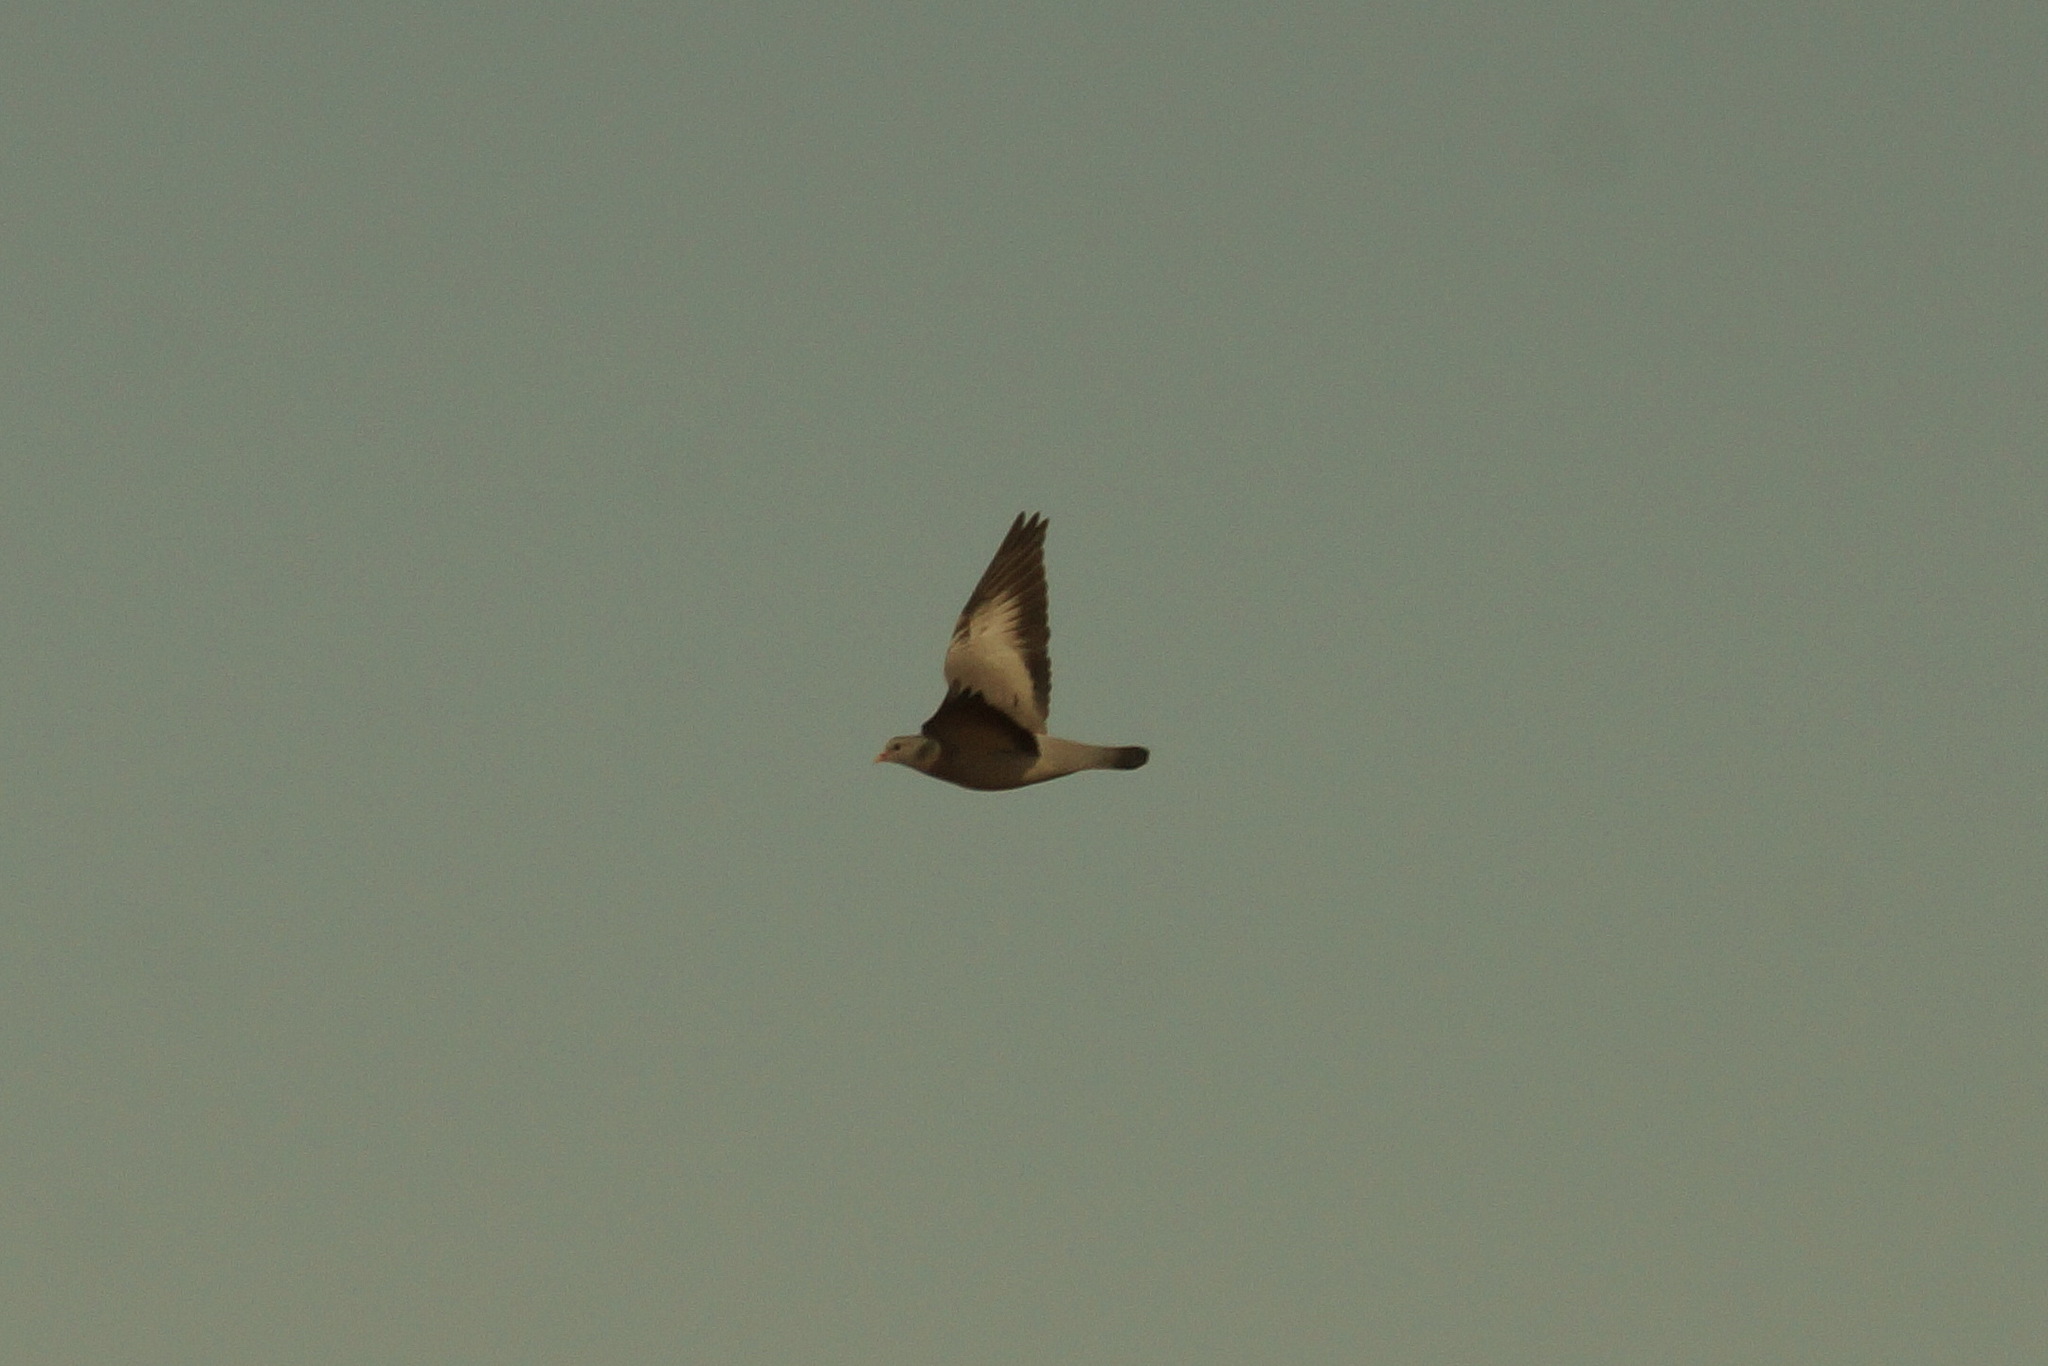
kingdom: Animalia
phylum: Chordata
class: Aves
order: Columbiformes
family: Columbidae
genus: Columba
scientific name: Columba oenas
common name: Stock dove
